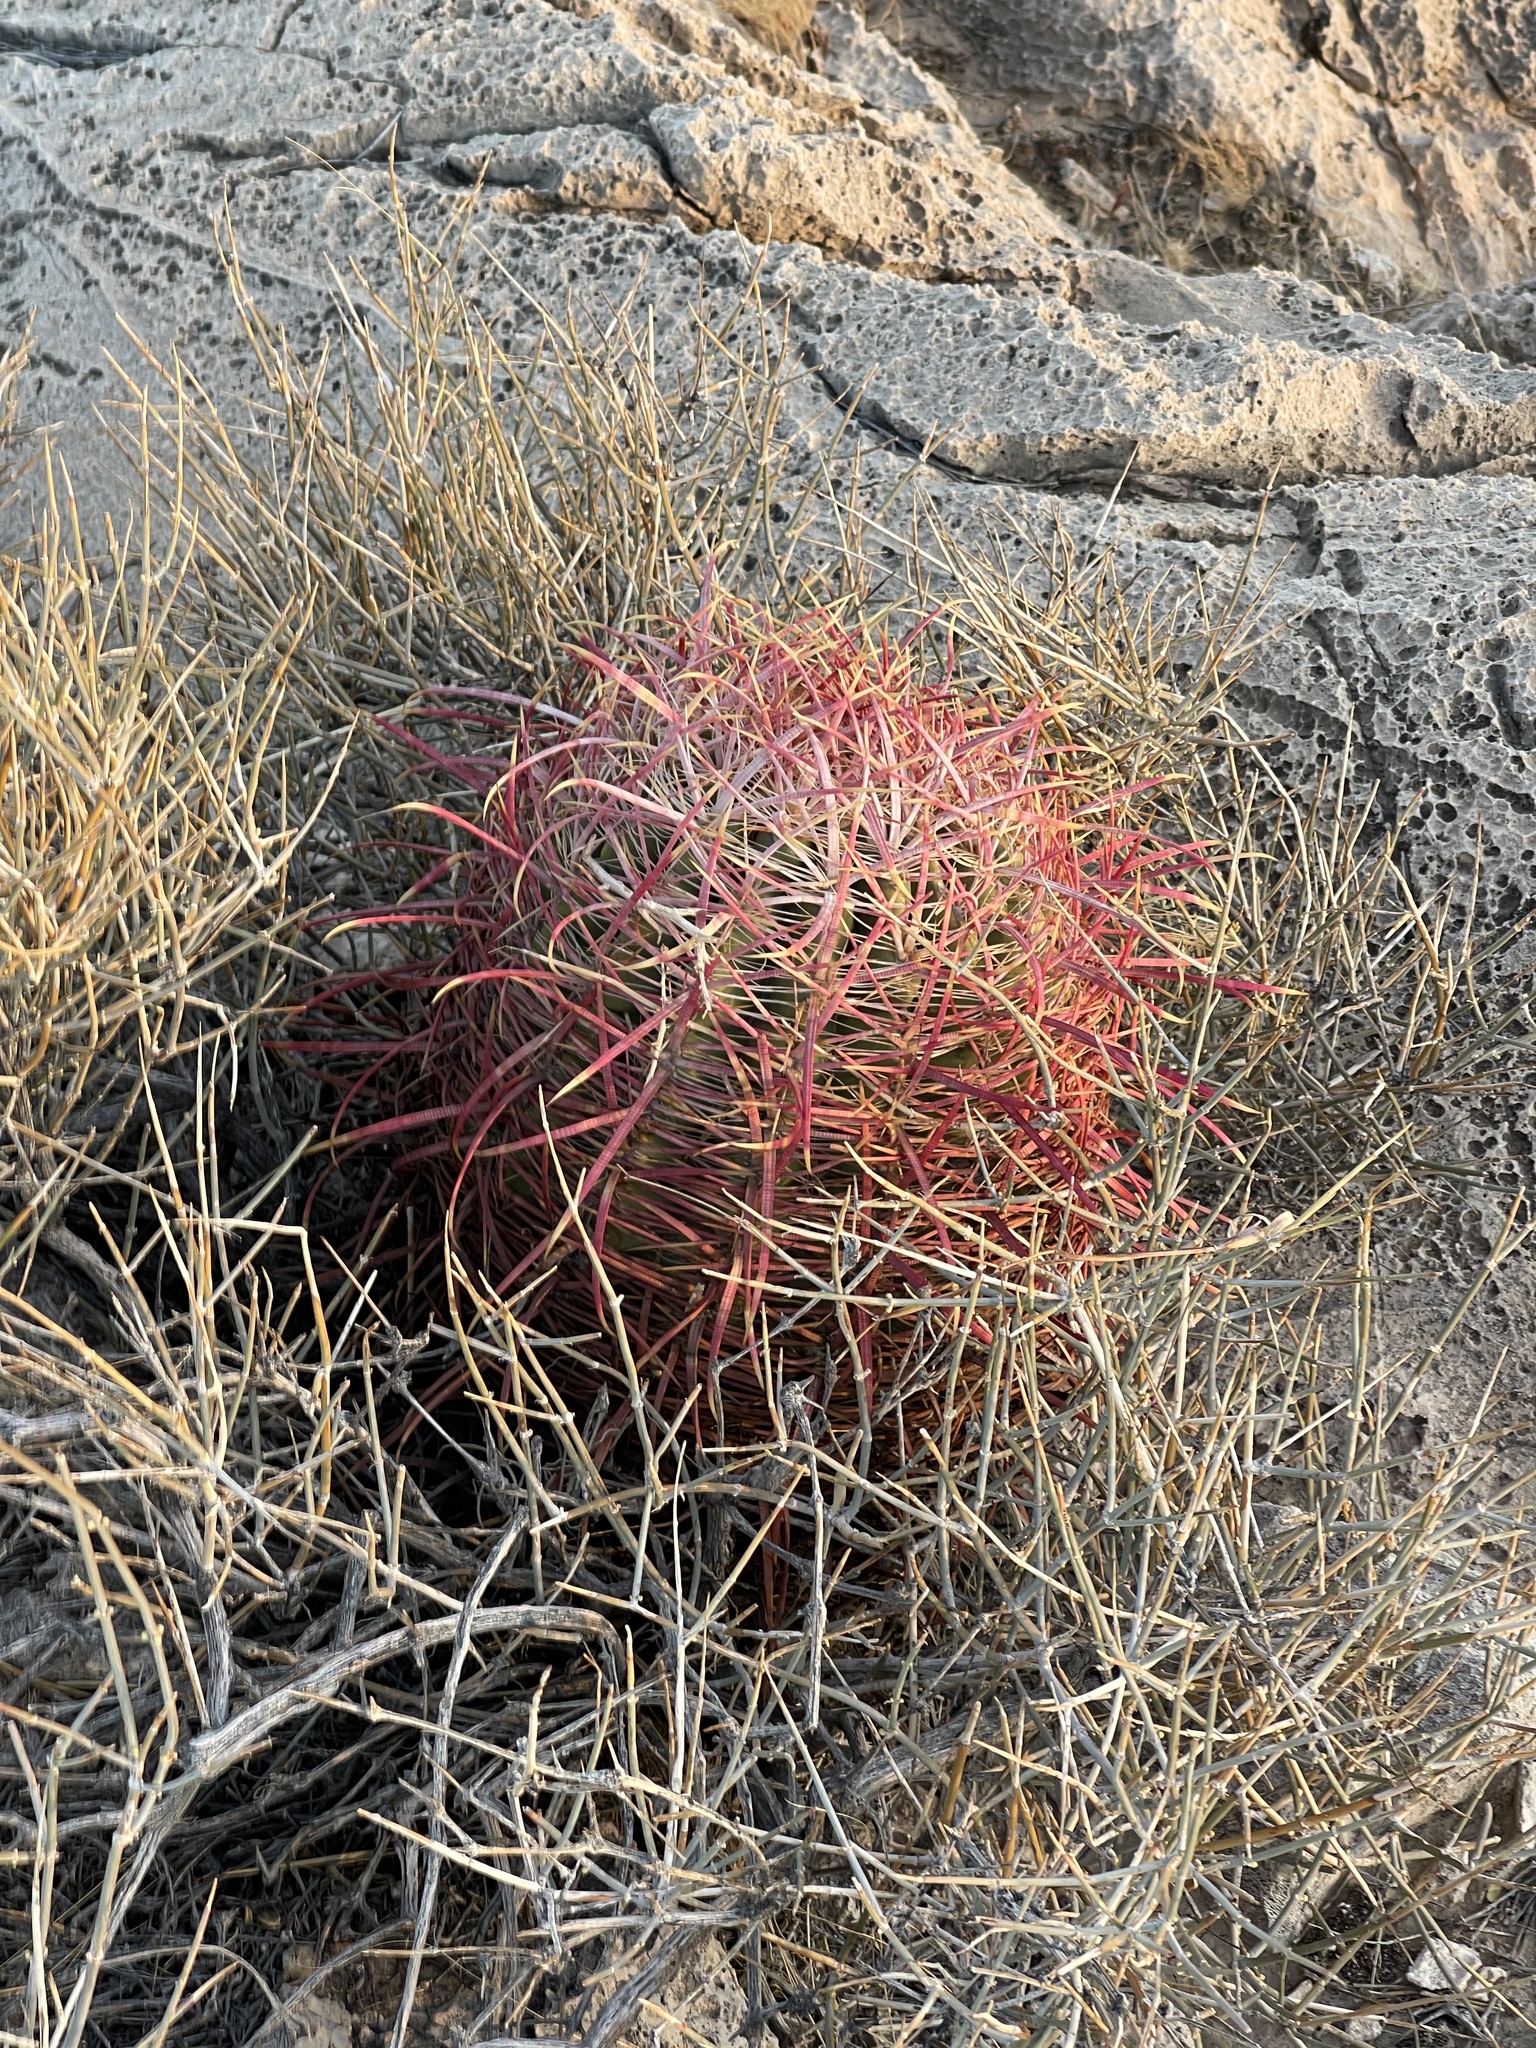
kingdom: Plantae
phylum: Tracheophyta
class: Magnoliopsida
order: Caryophyllales
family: Cactaceae
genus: Ferocactus
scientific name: Ferocactus cylindraceus
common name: California barrel cactus
